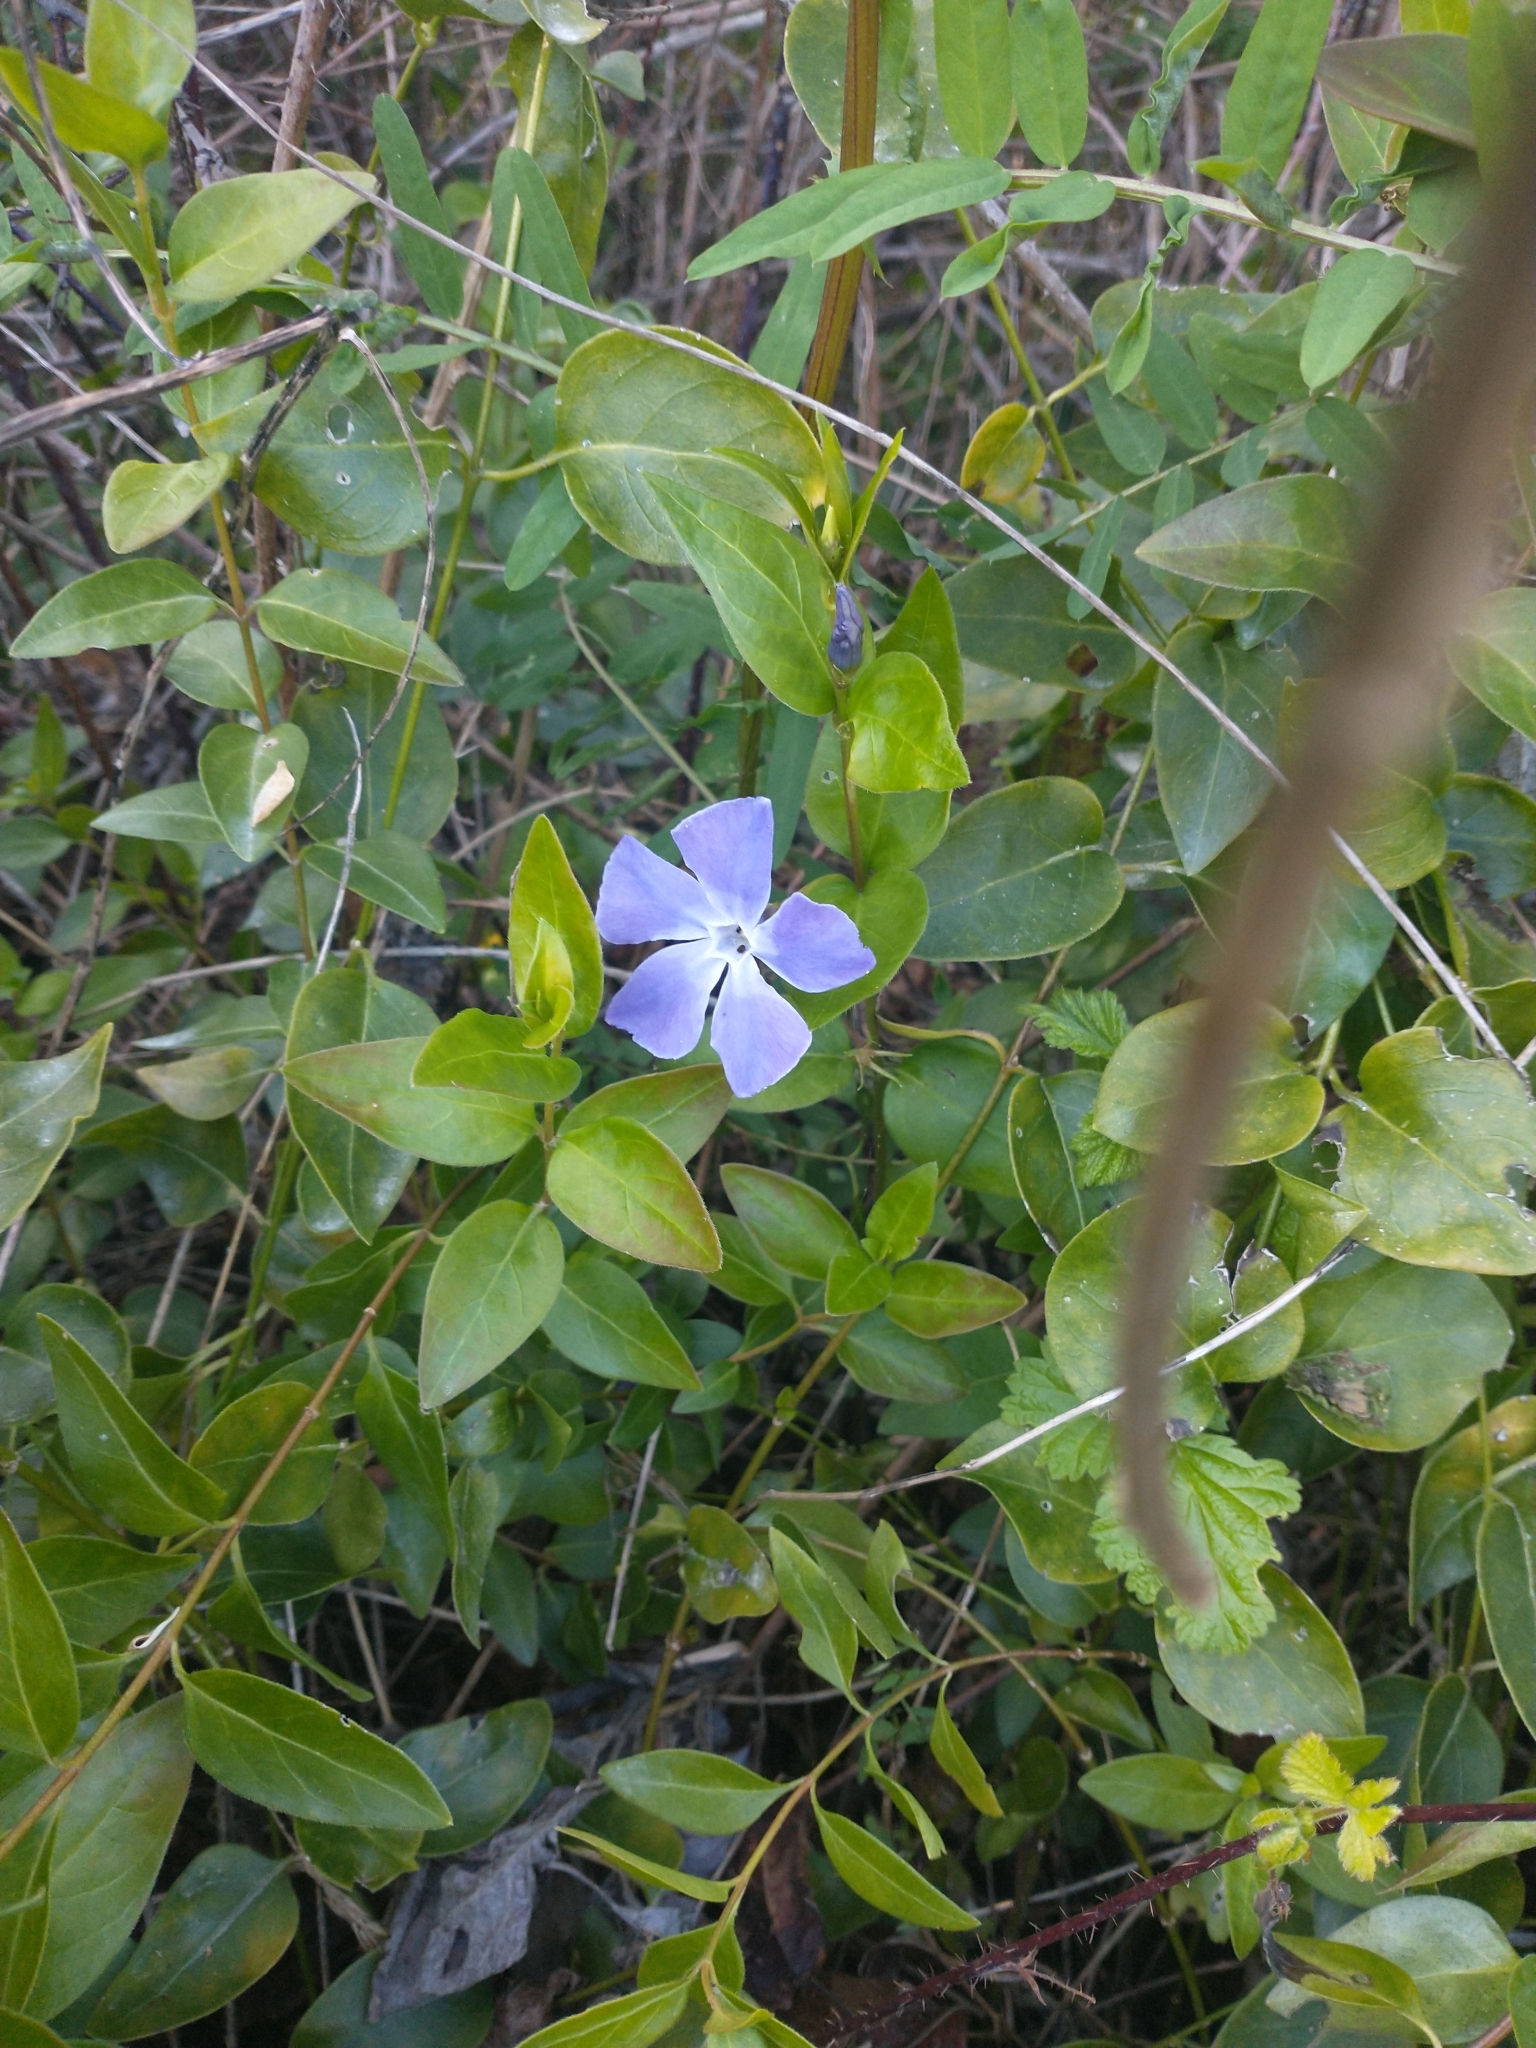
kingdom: Plantae
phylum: Tracheophyta
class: Magnoliopsida
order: Gentianales
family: Apocynaceae
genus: Vinca
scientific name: Vinca major
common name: Greater periwinkle
